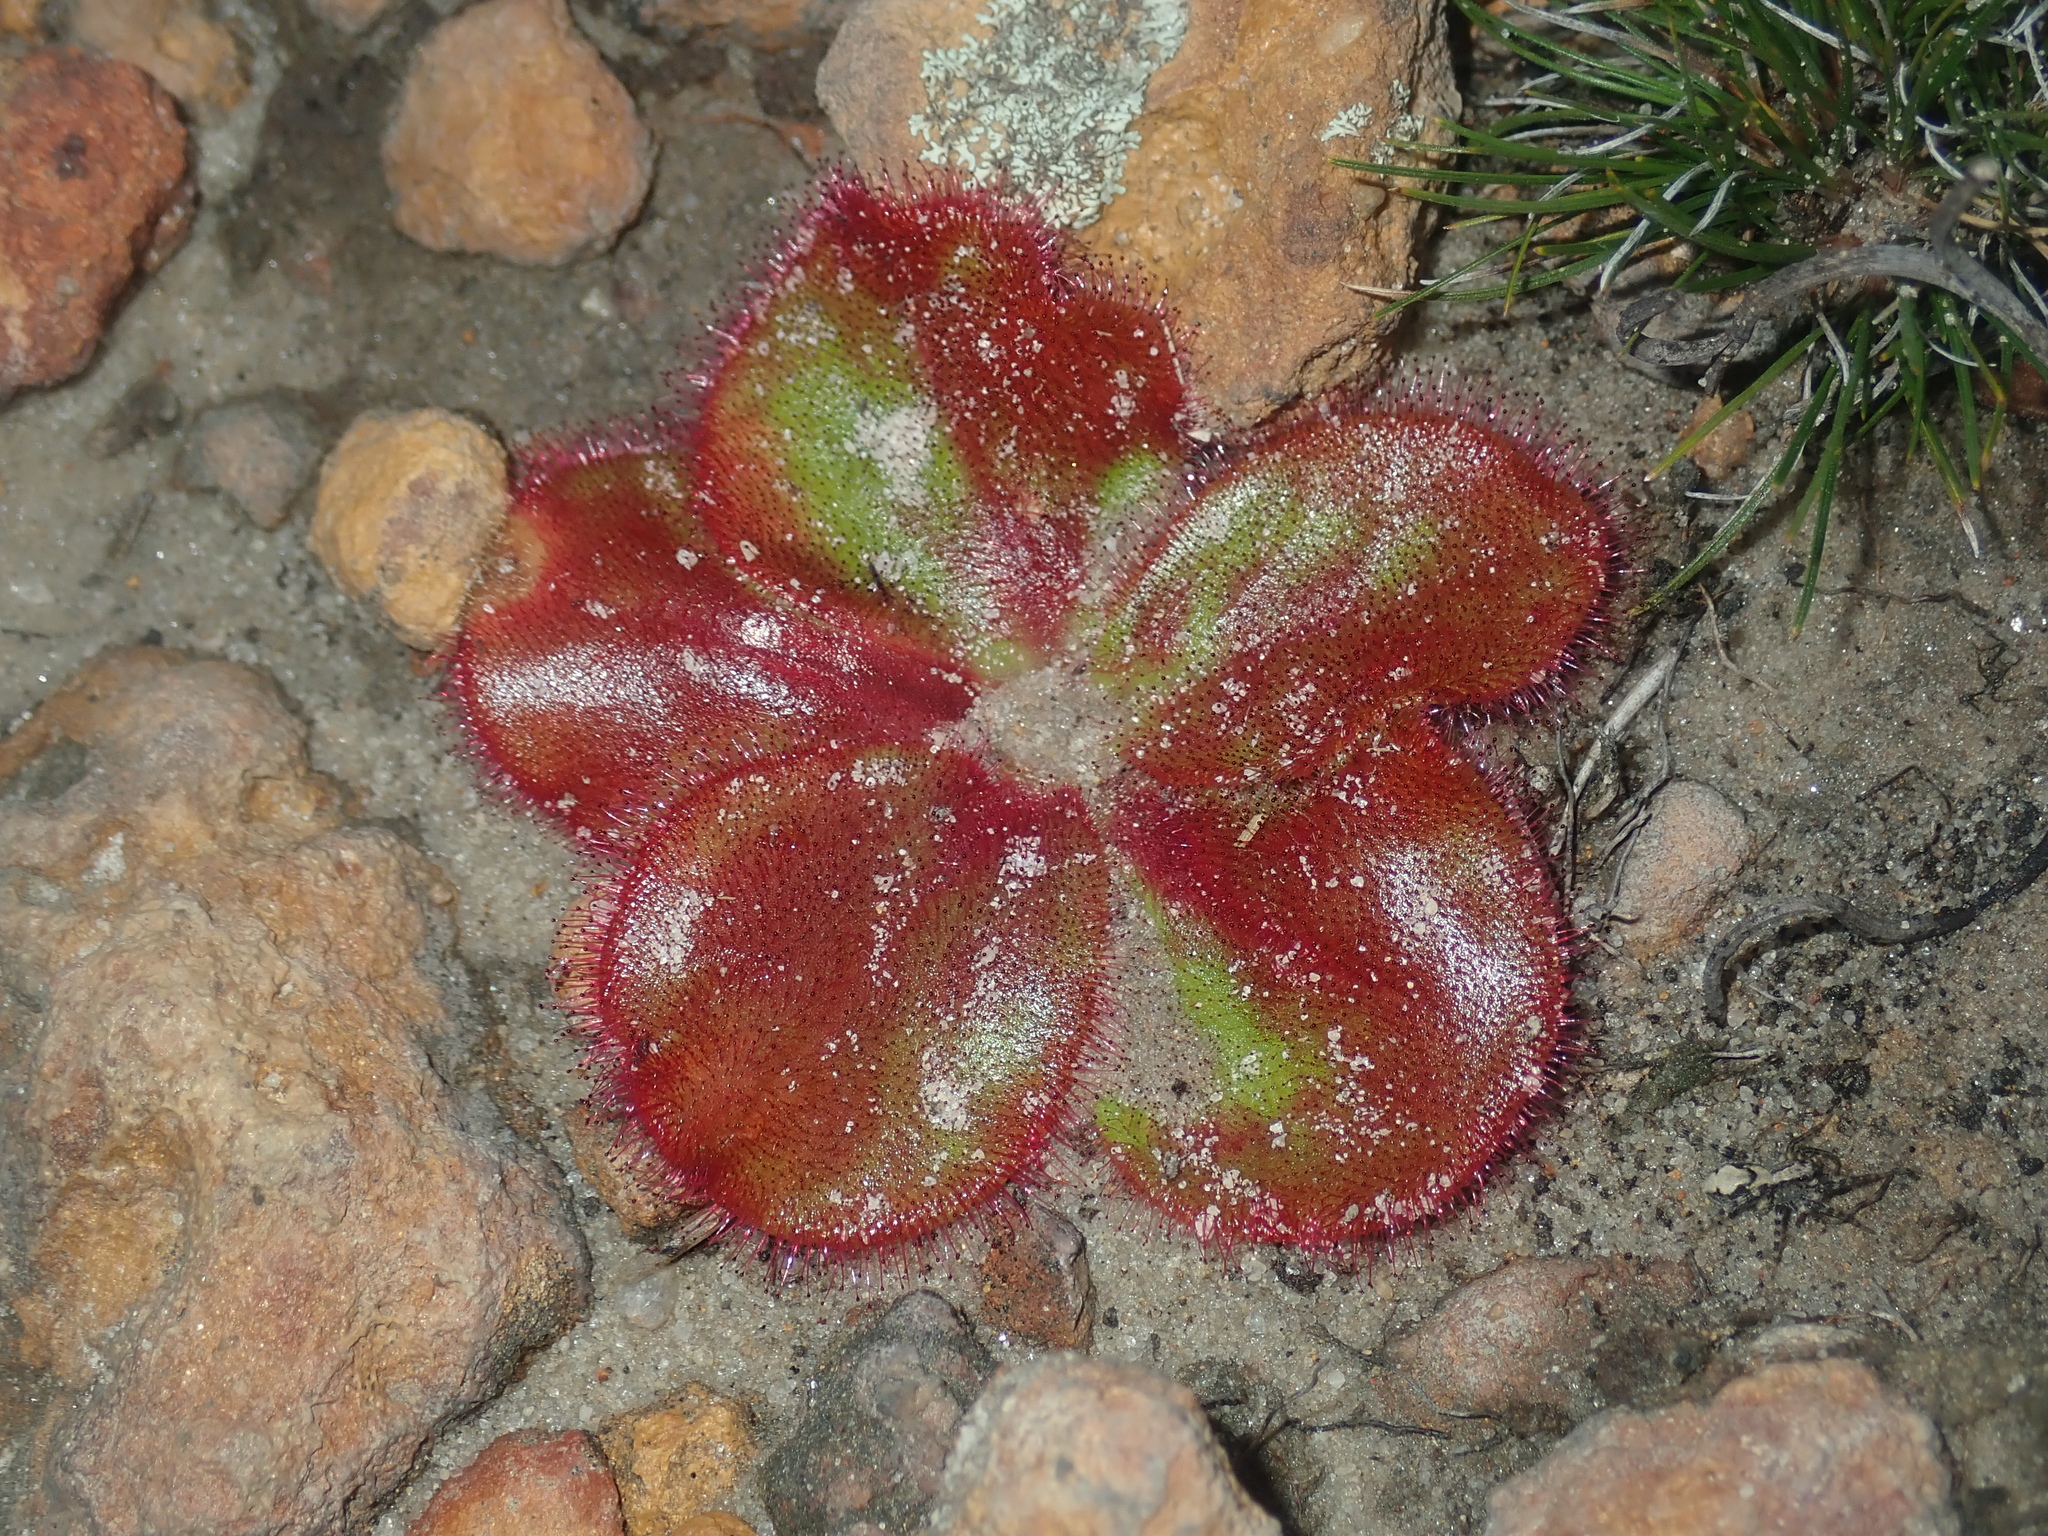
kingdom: Plantae
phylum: Tracheophyta
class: Magnoliopsida
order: Caryophyllales
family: Droseraceae
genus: Drosera
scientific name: Drosera erythrorhiza
